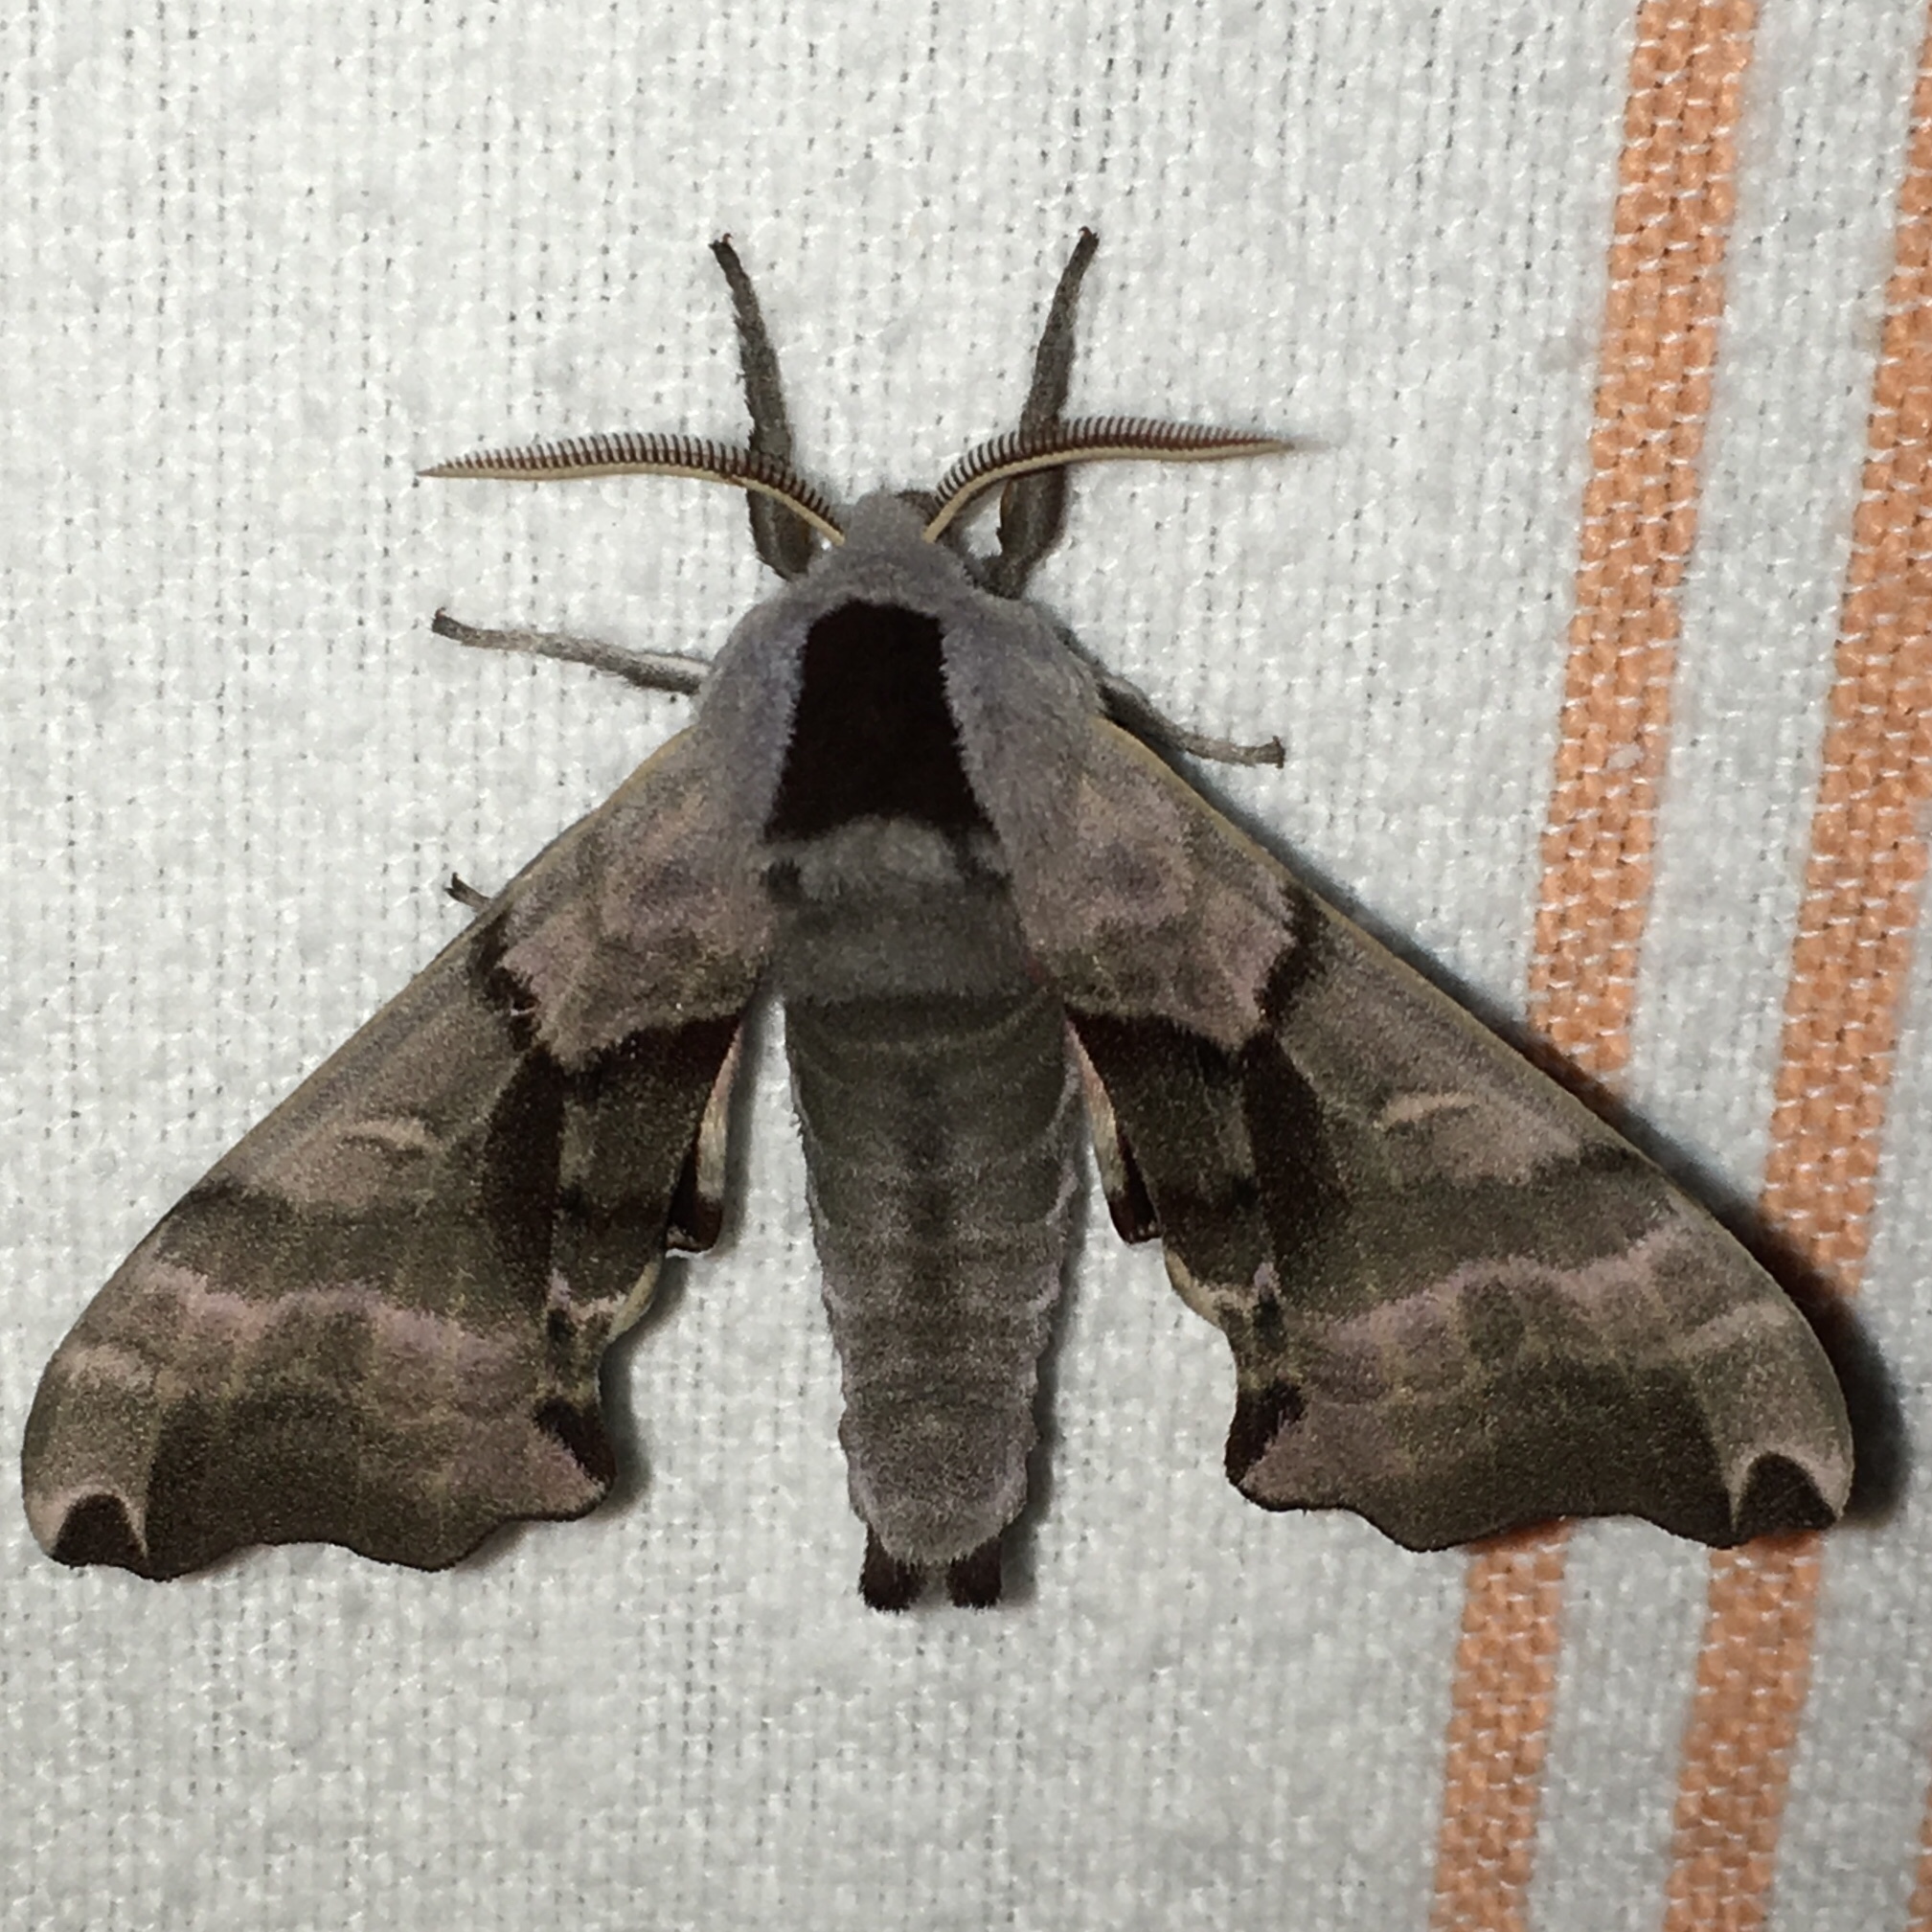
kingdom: Animalia
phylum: Arthropoda
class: Insecta
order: Lepidoptera
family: Sphingidae
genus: Smerinthus
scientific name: Smerinthus jamaicensis
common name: Twin spotted sphinx
